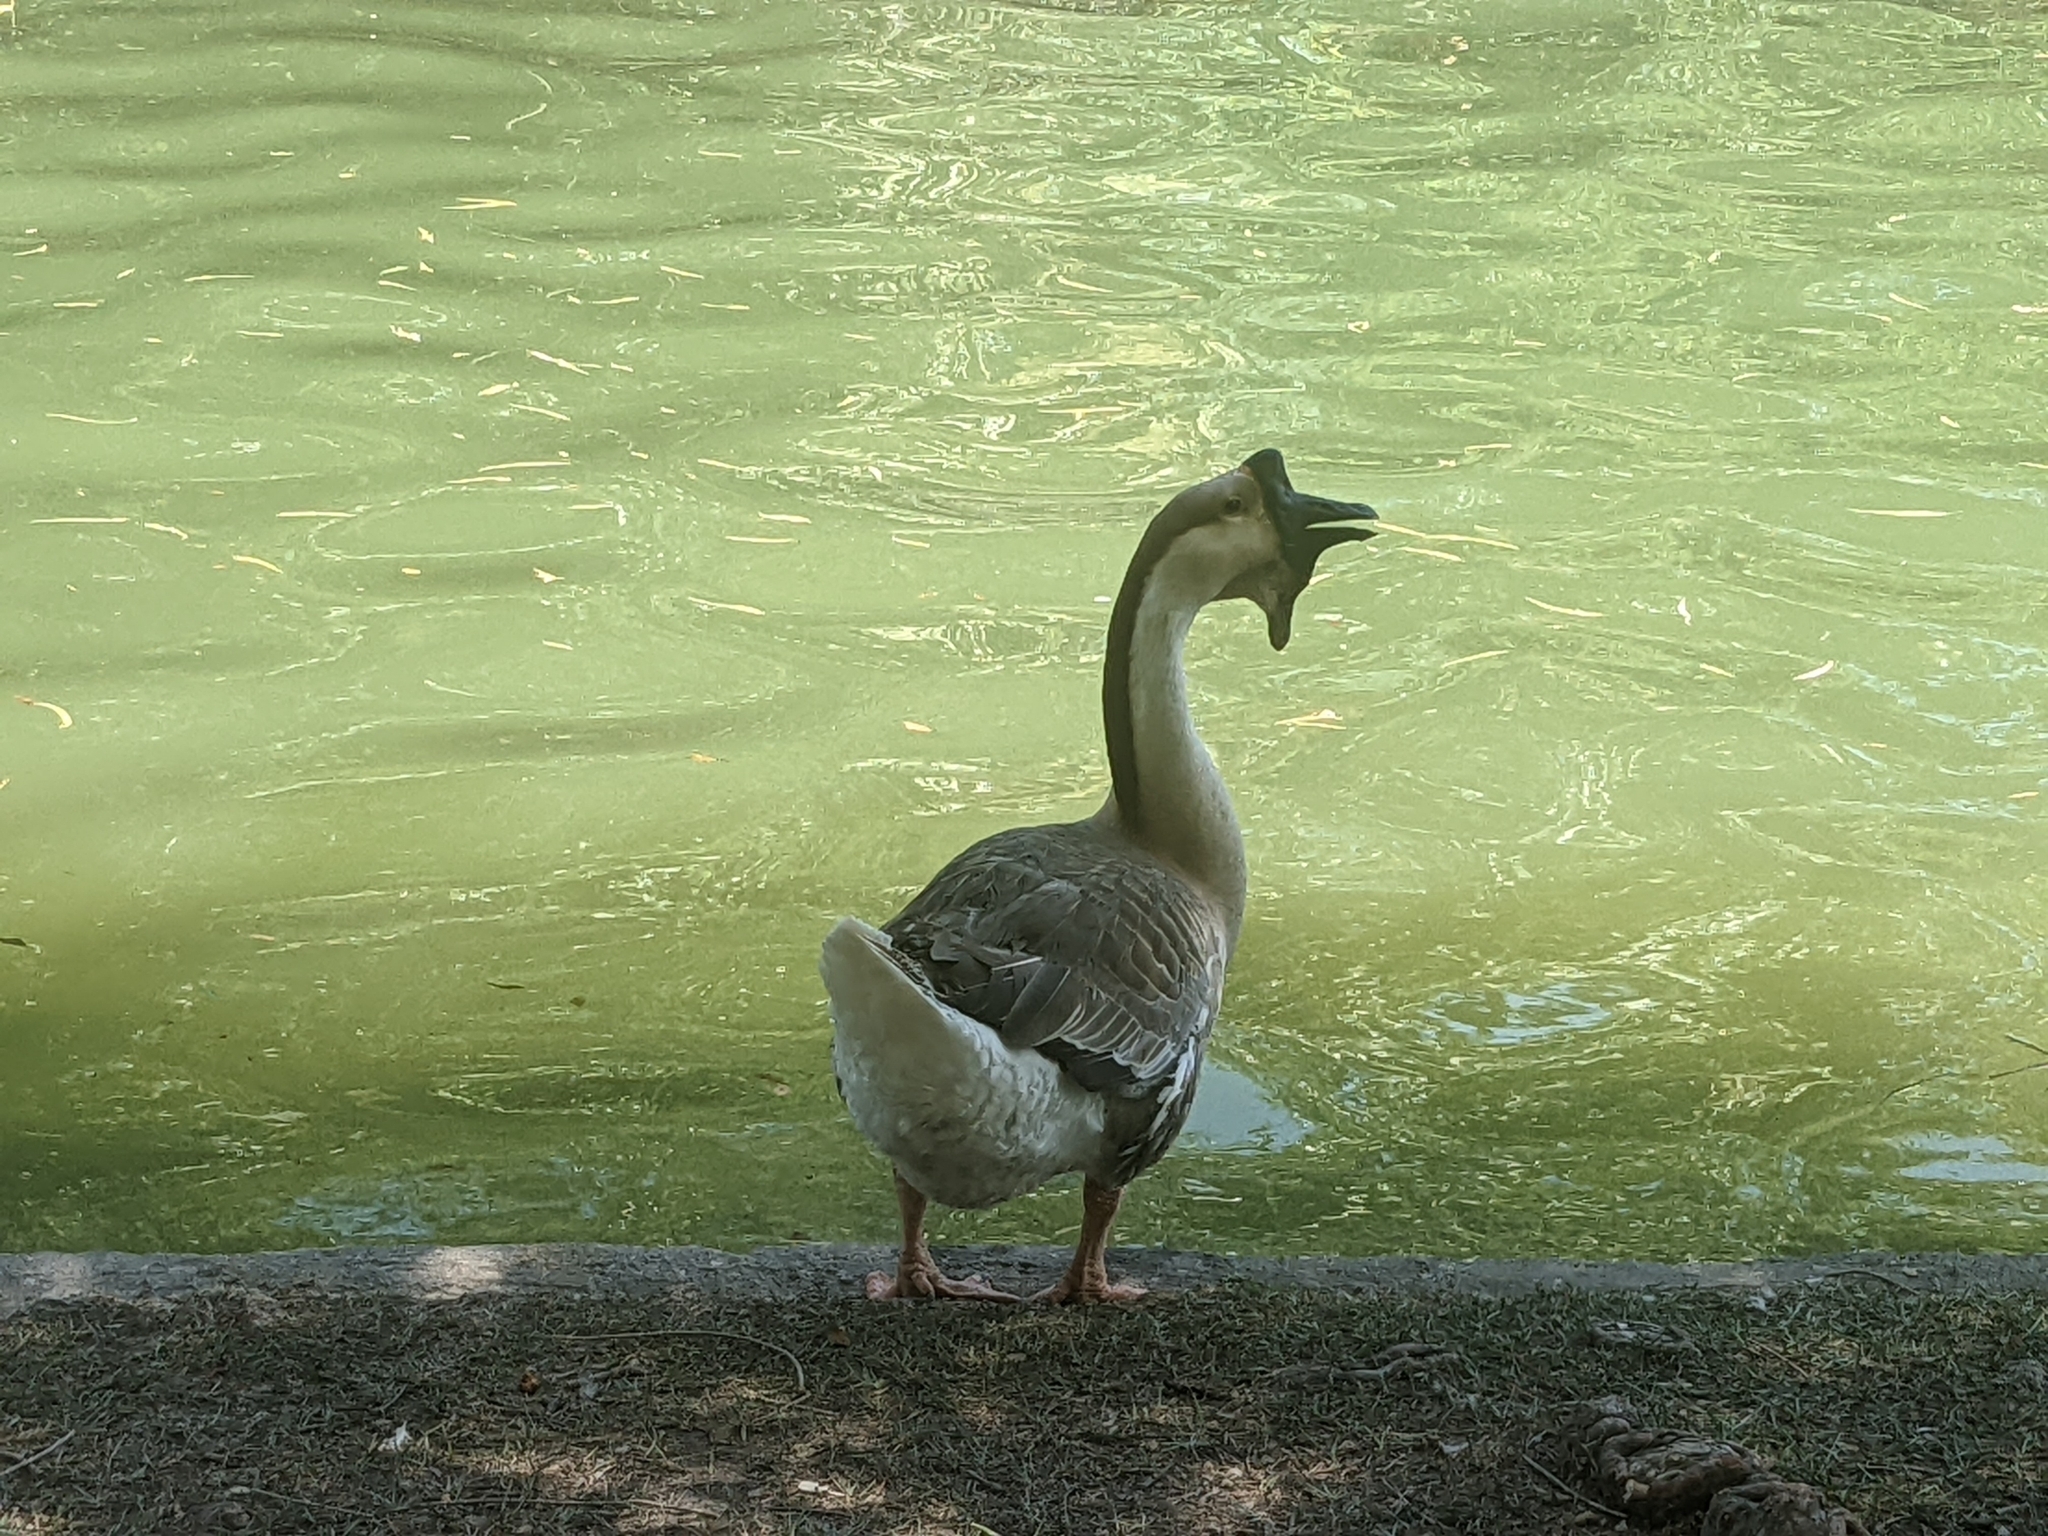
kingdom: Animalia
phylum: Chordata
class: Aves
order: Anseriformes
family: Anatidae
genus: Anser
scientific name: Anser cygnoides
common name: Swan goose
